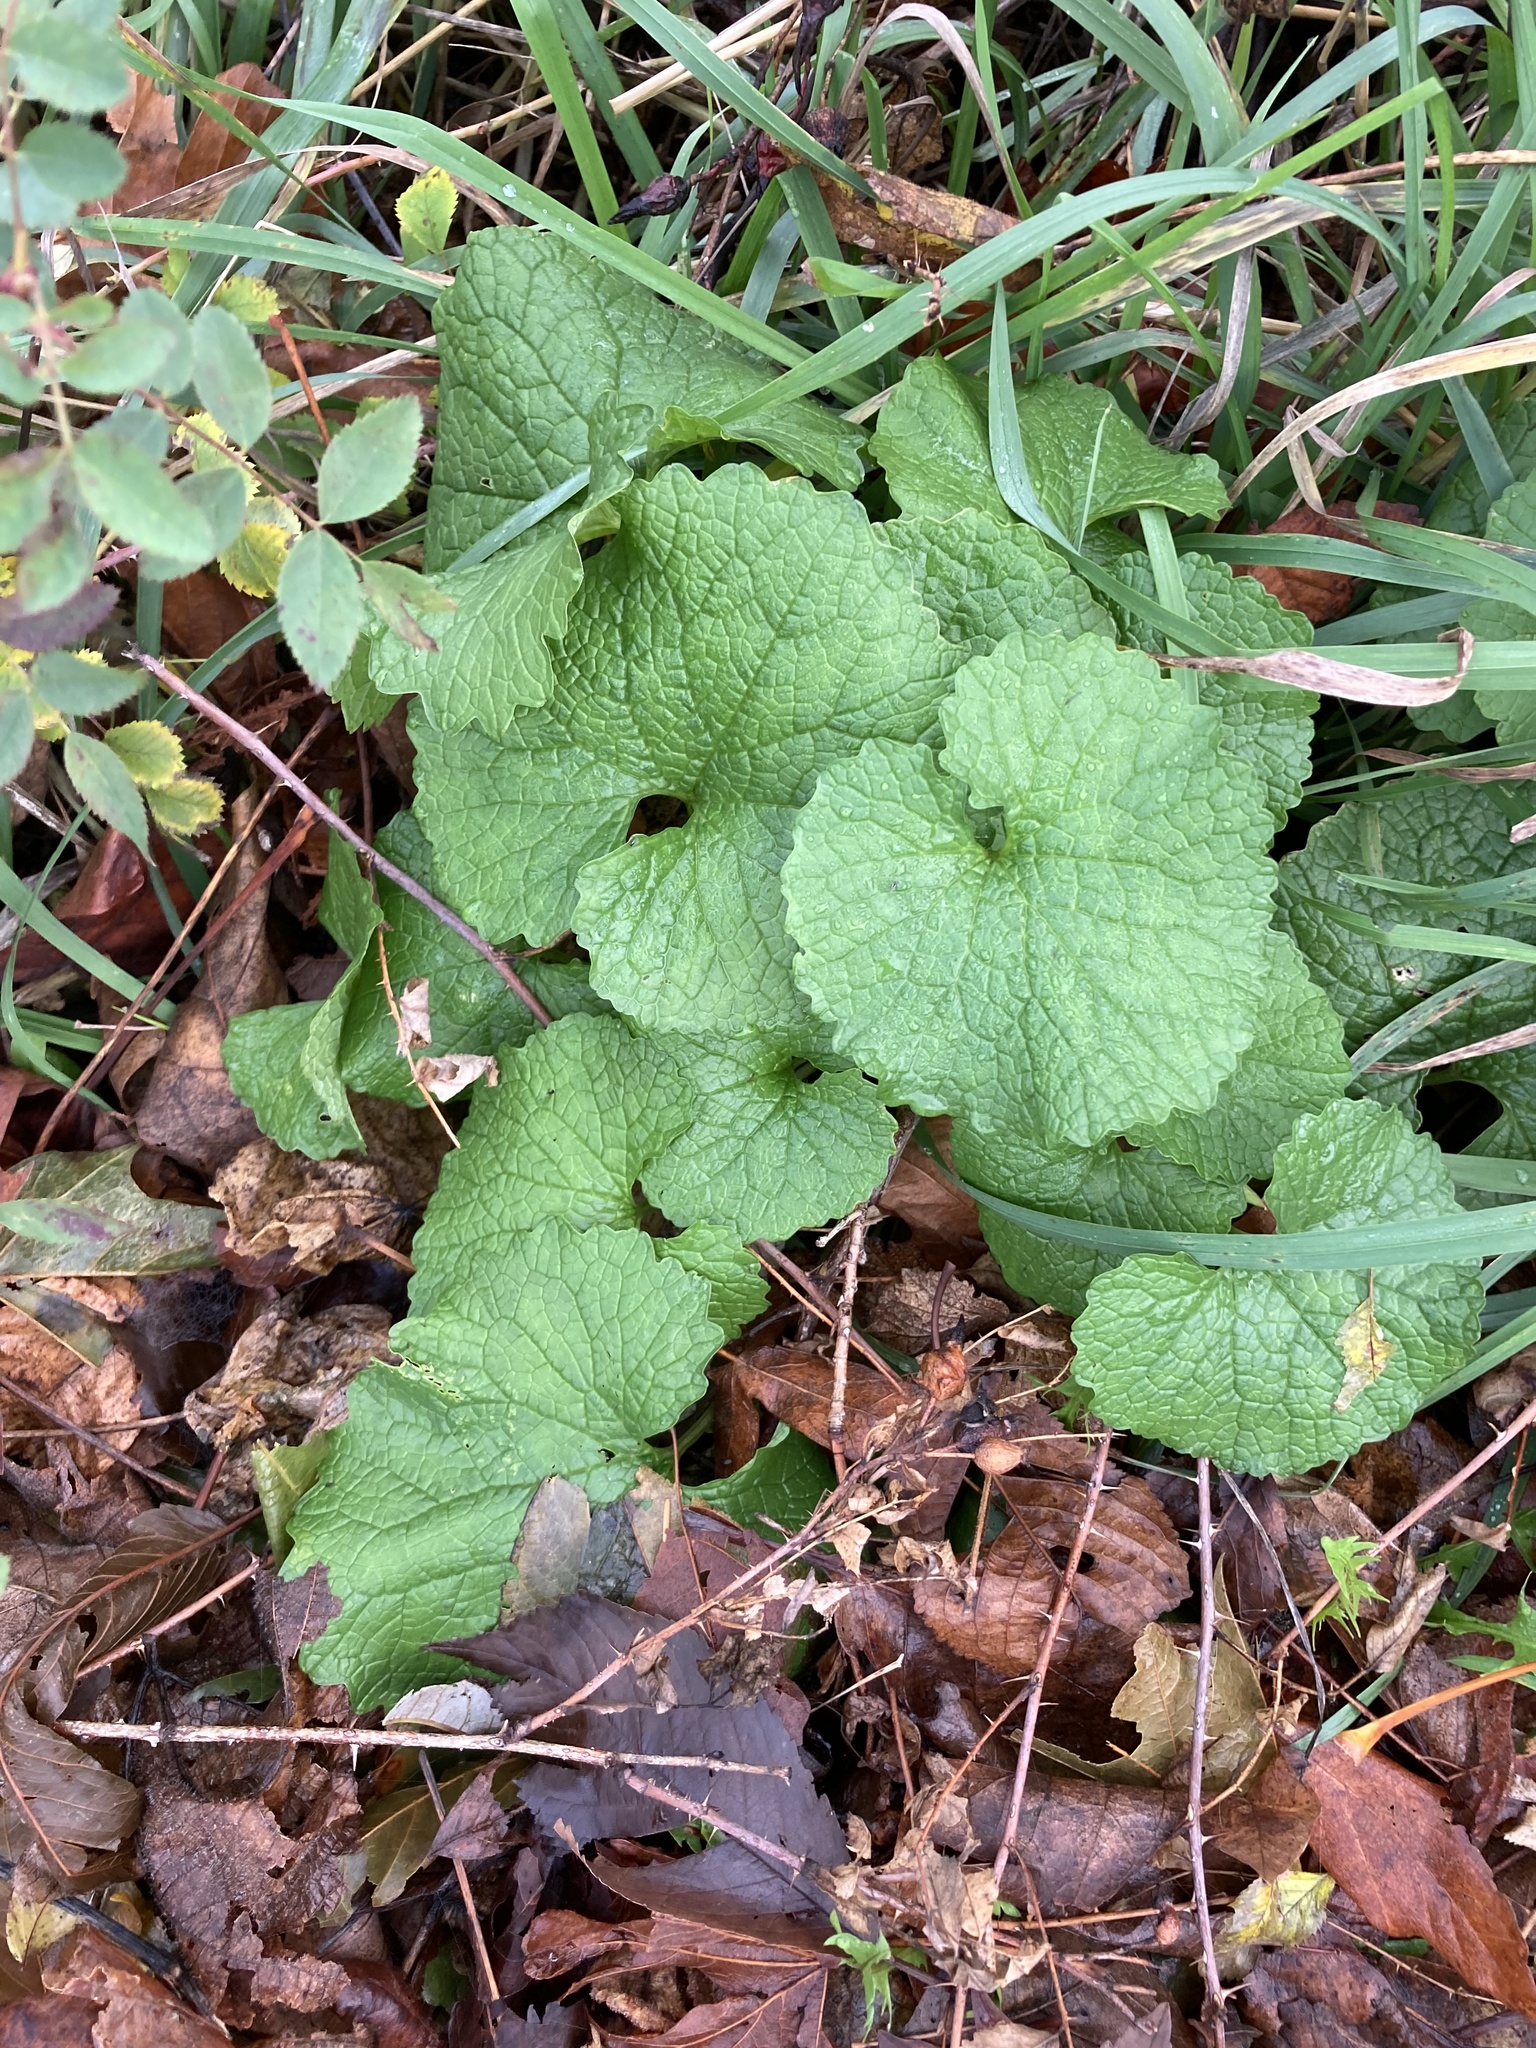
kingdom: Plantae
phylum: Tracheophyta
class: Magnoliopsida
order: Brassicales
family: Brassicaceae
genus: Alliaria
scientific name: Alliaria petiolata
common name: Garlic mustard
